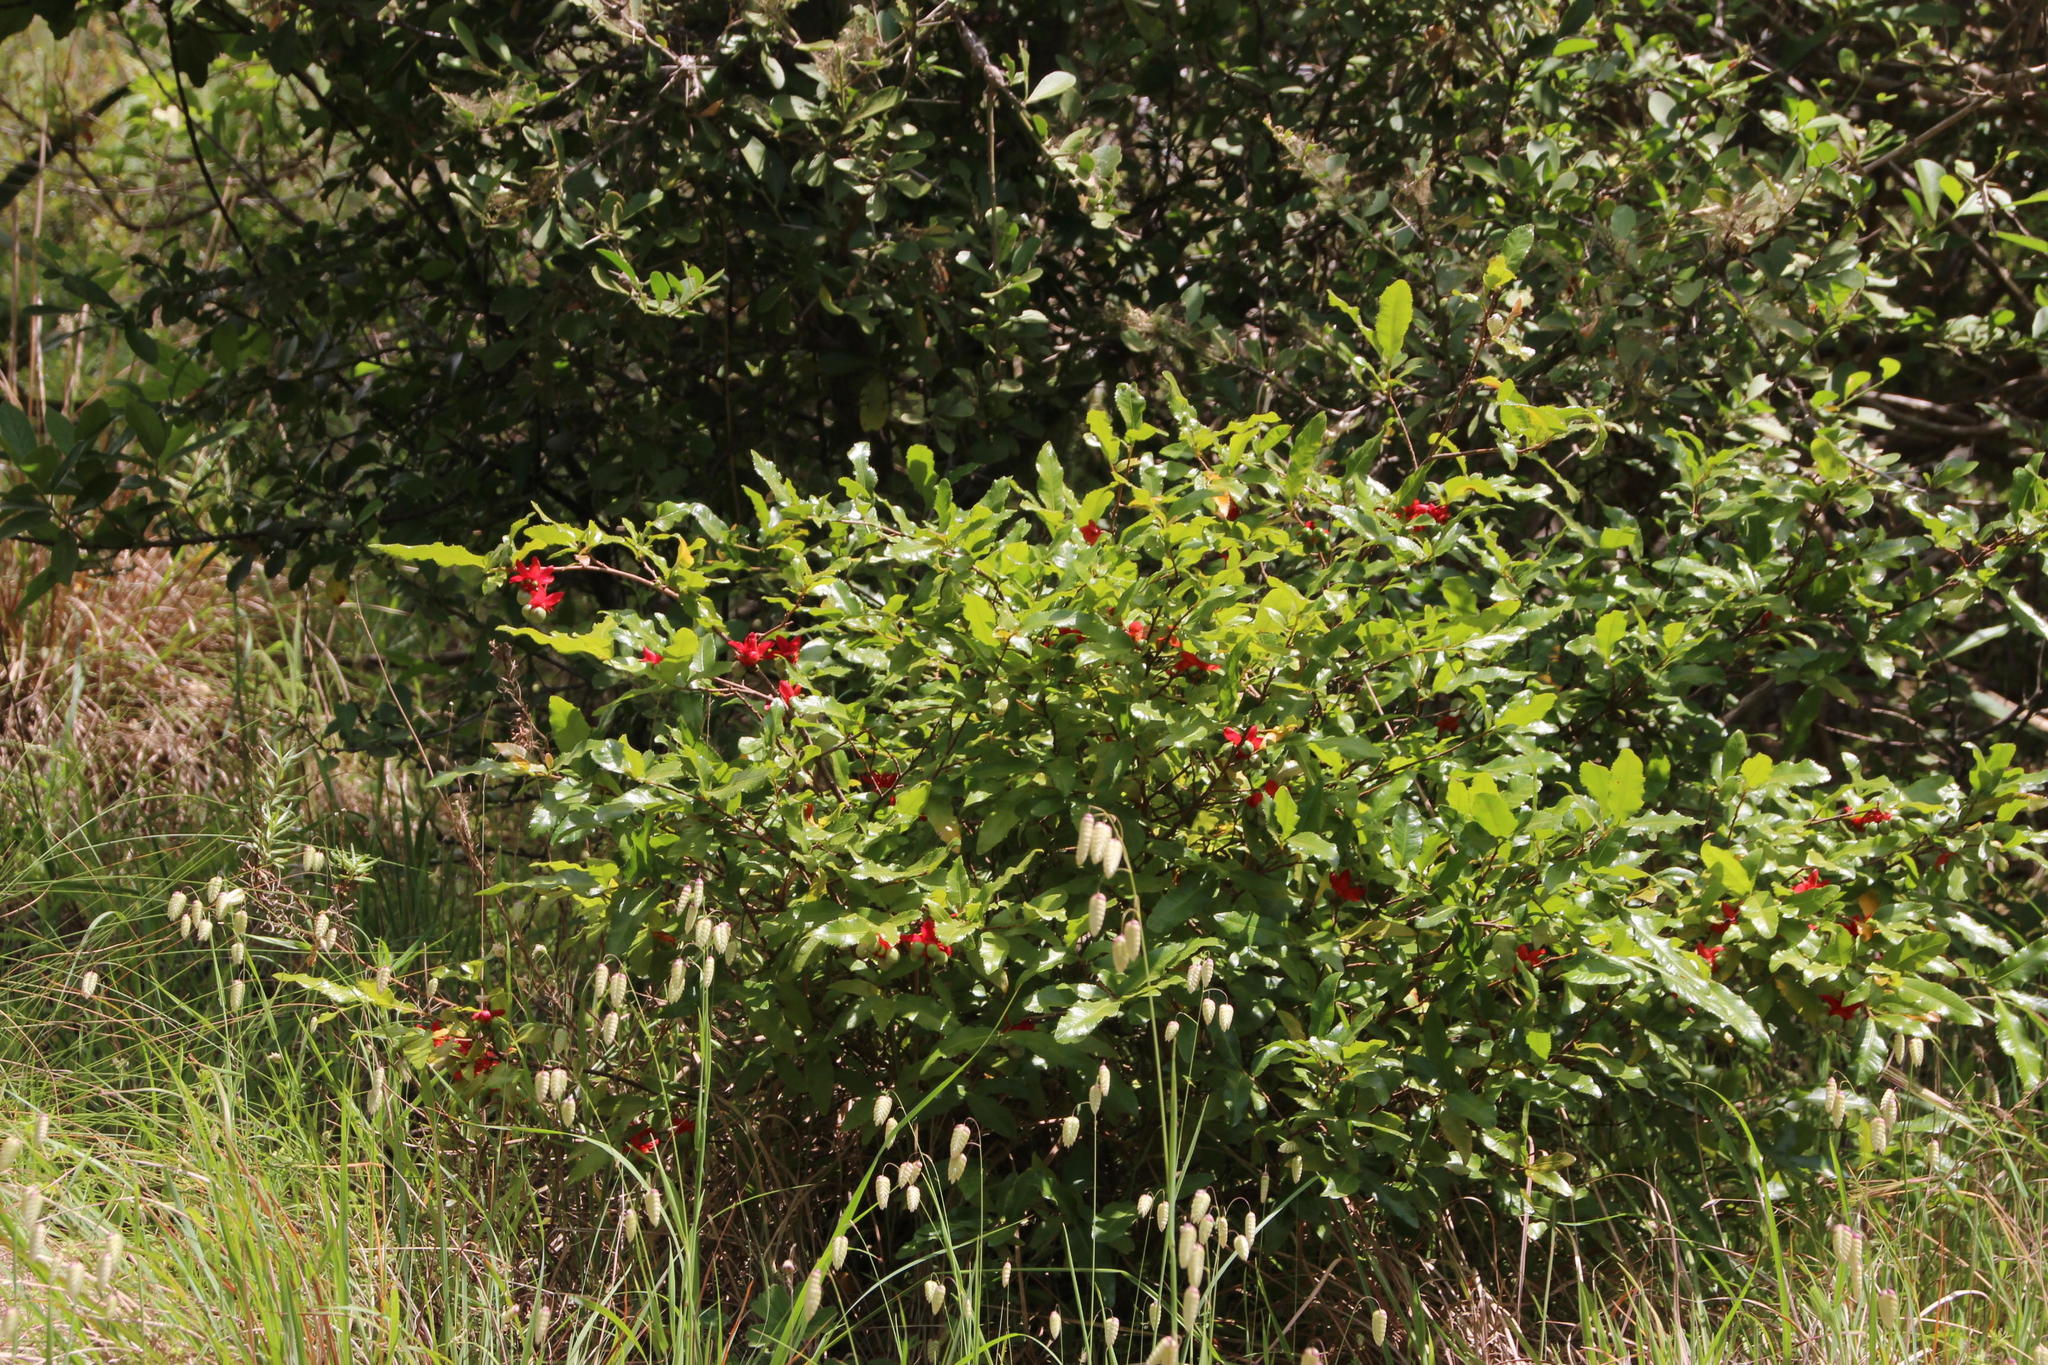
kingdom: Plantae
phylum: Tracheophyta
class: Magnoliopsida
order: Malpighiales
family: Ochnaceae
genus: Ochna
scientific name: Ochna serrulata
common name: Mickey mouse plant
